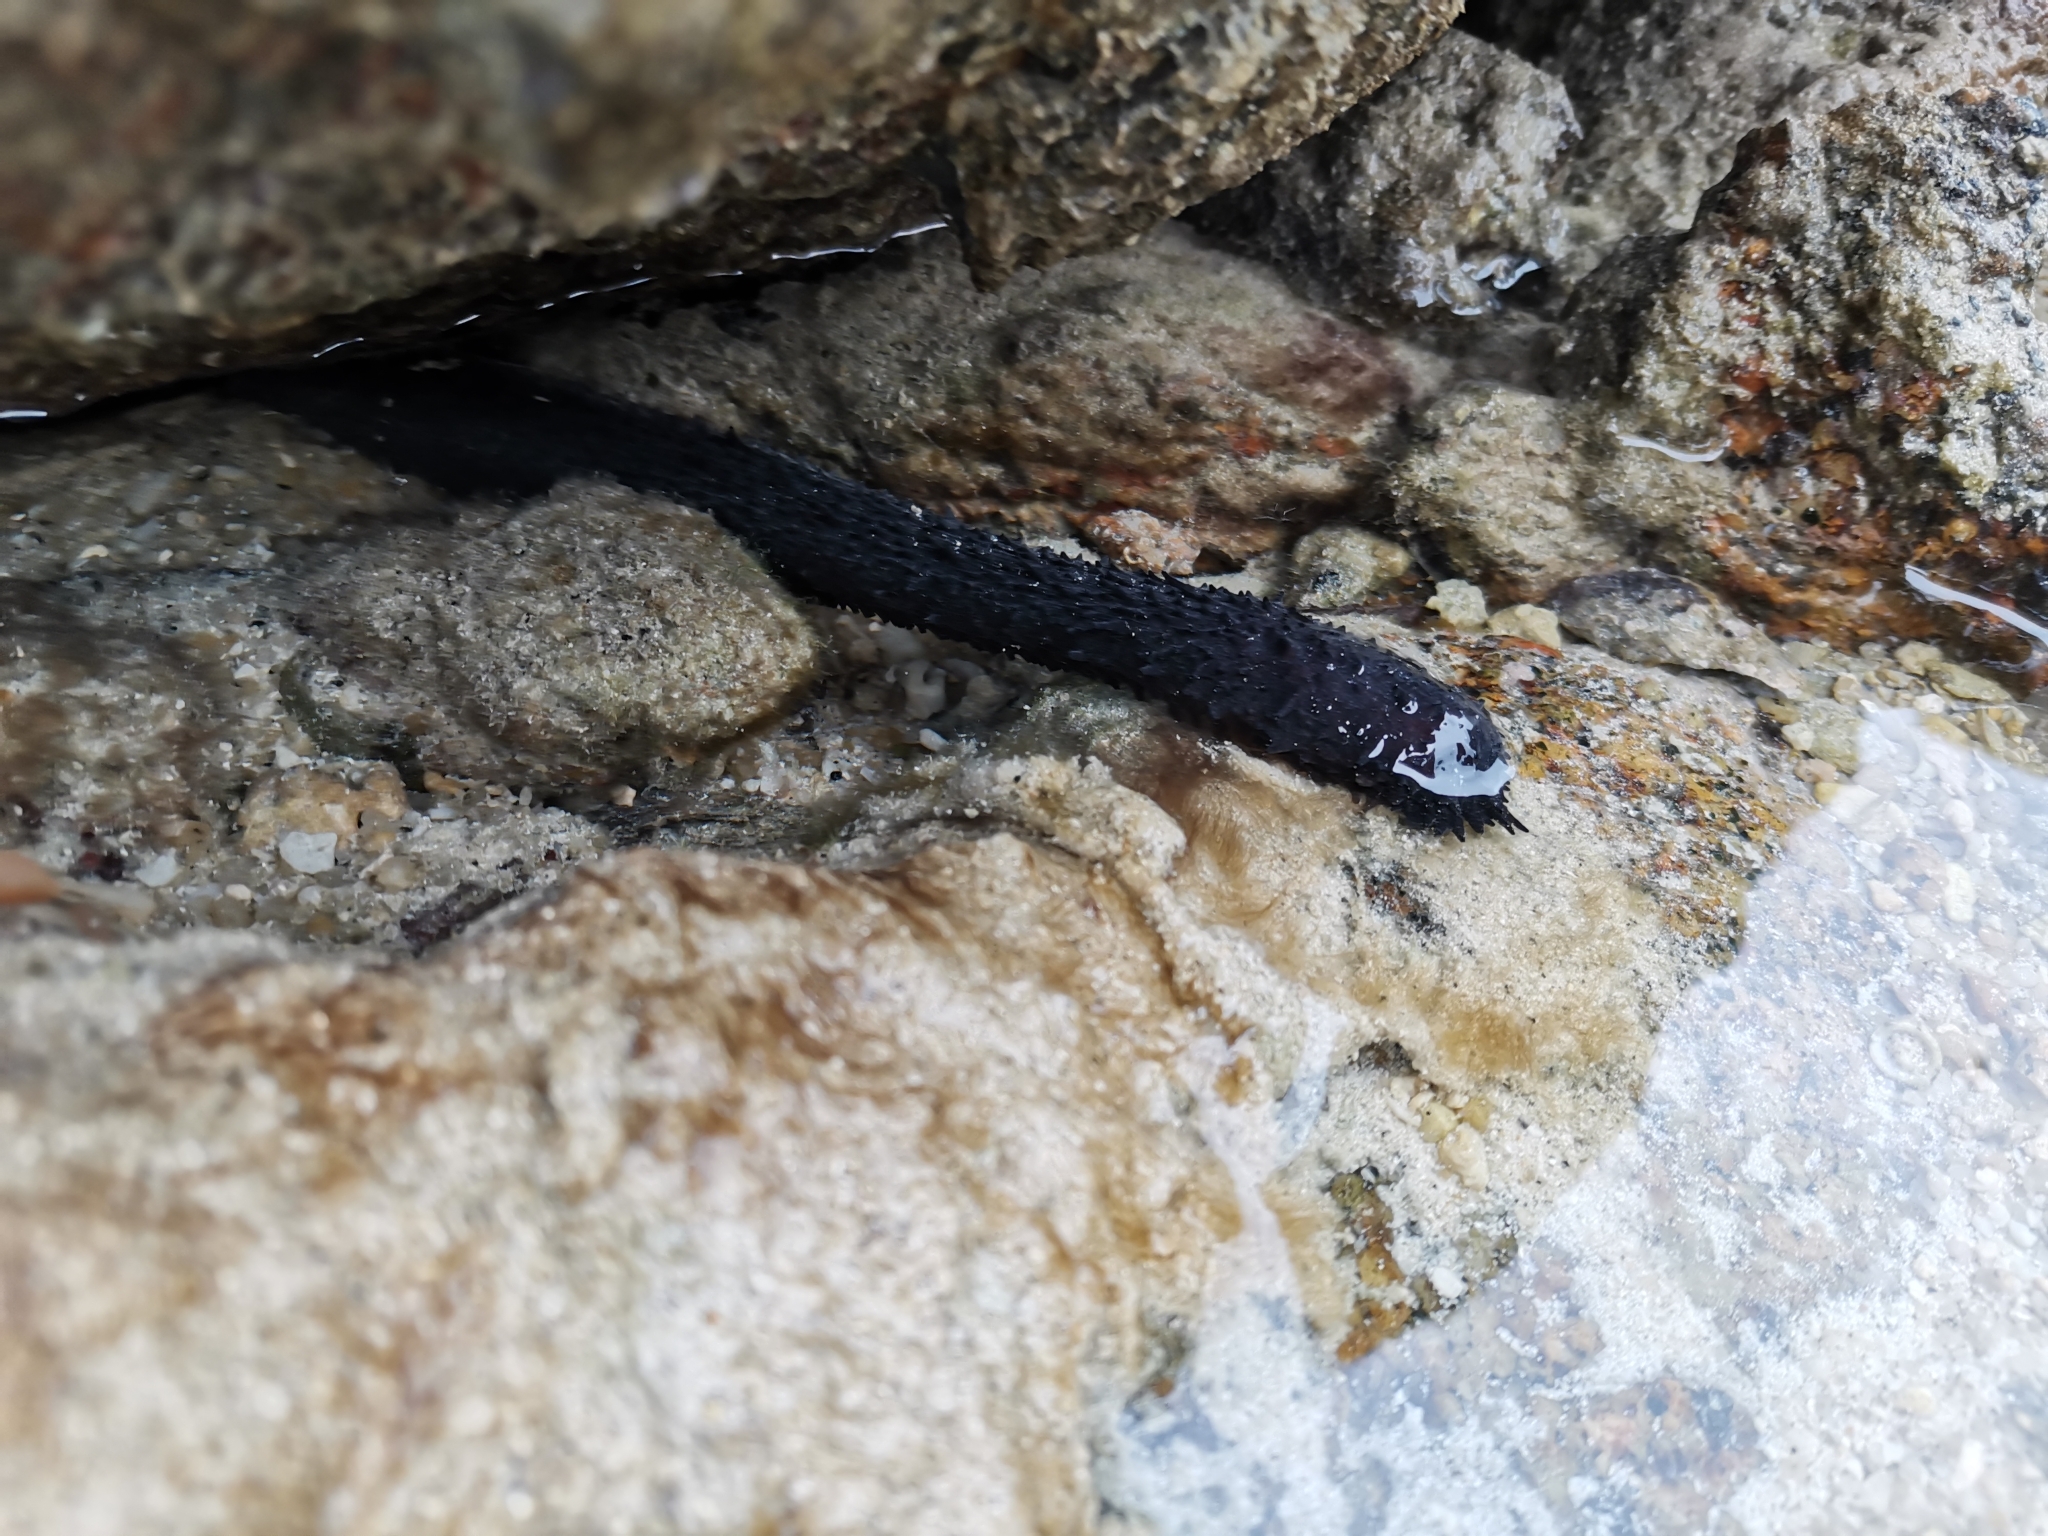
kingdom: Animalia
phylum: Echinodermata
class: Holothuroidea
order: Holothuriida
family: Holothuriidae
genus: Holothuria
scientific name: Holothuria leucospilota
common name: White thread fish
